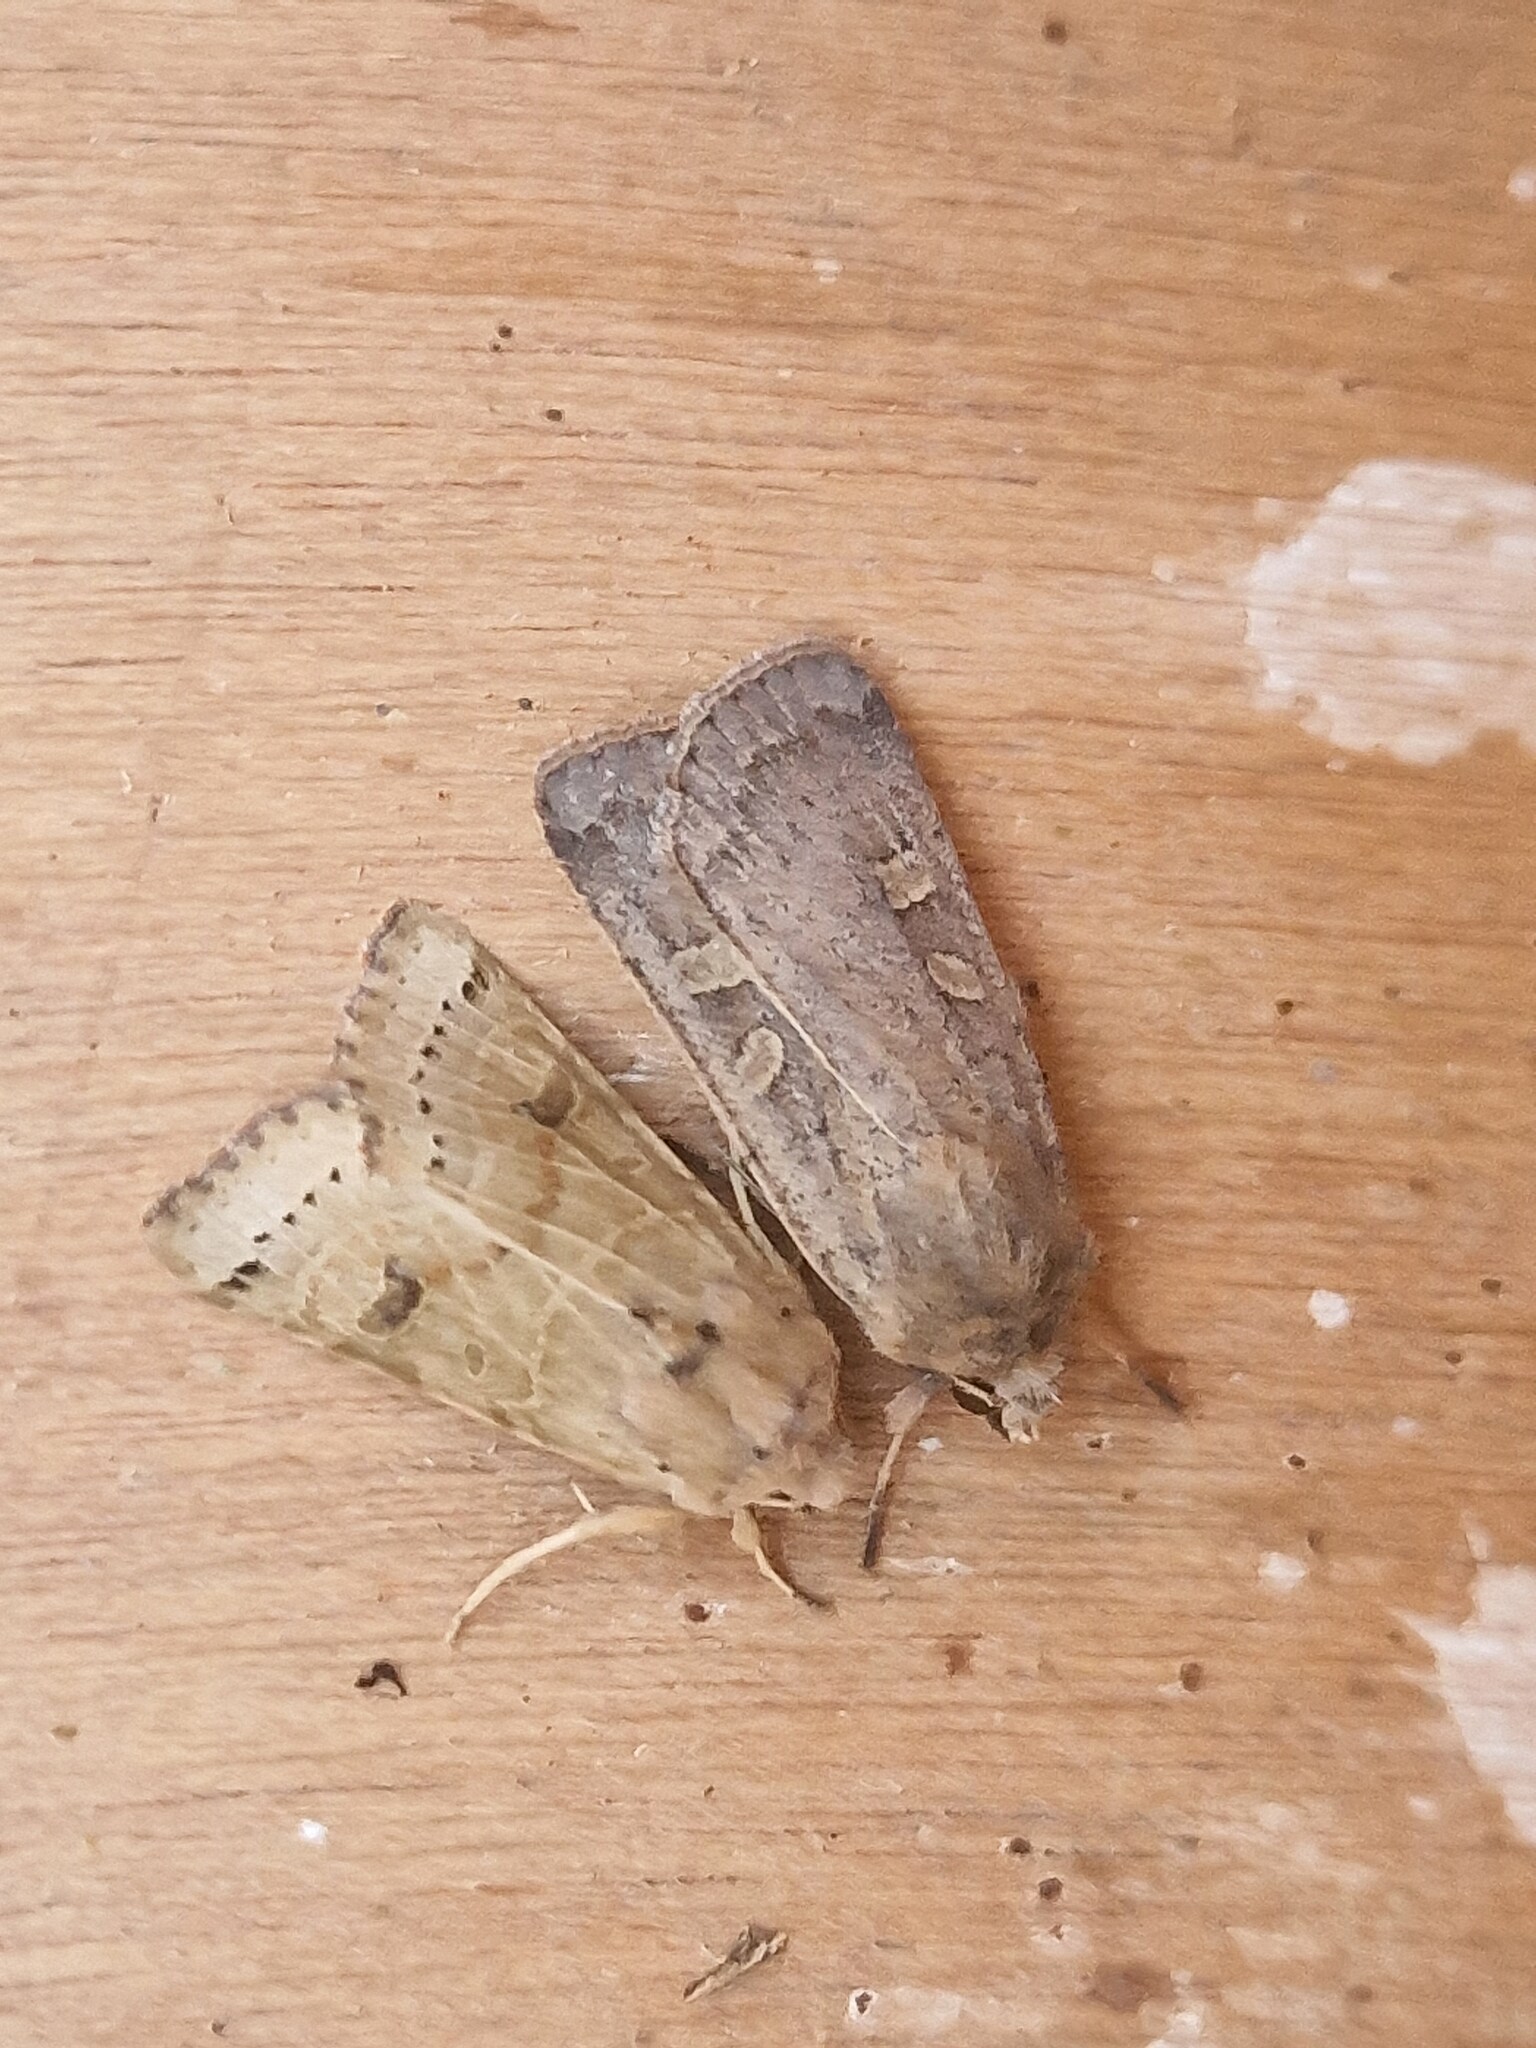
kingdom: Animalia
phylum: Arthropoda
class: Insecta
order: Lepidoptera
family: Noctuidae
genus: Xestia
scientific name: Xestia xanthographa
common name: Square-spot rustic
